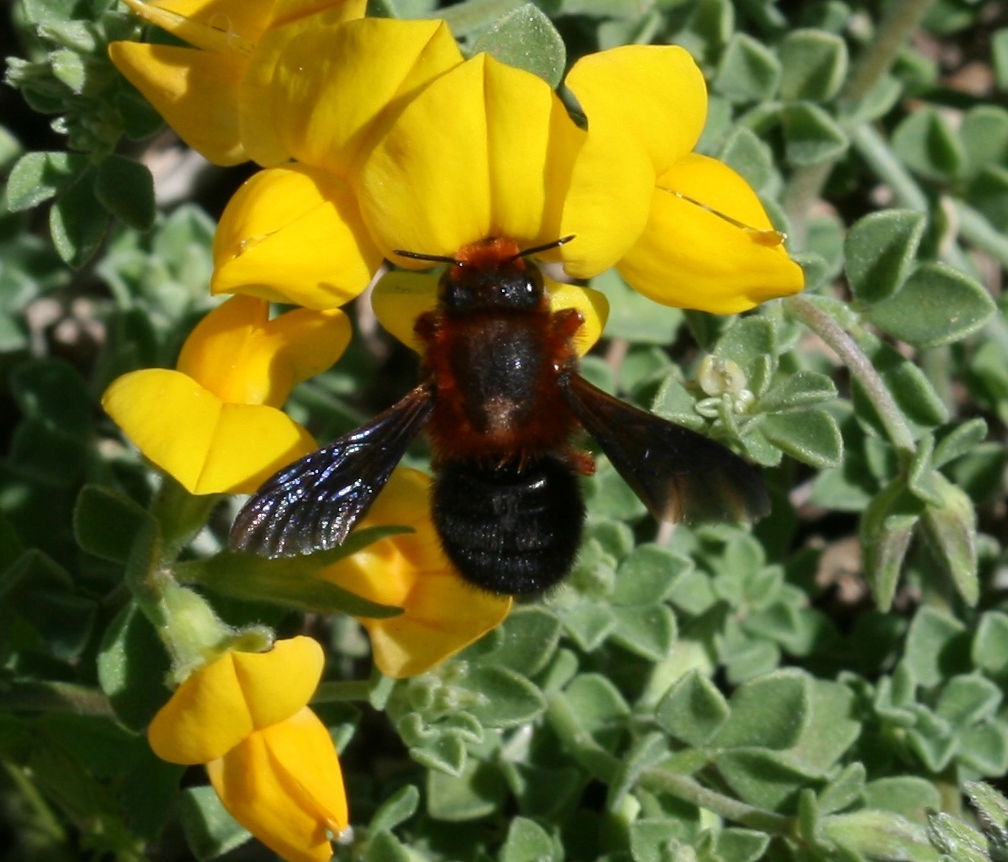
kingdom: Animalia
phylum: Arthropoda
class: Insecta
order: Hymenoptera
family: Megachilidae
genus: Megachile
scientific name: Megachile sicula
